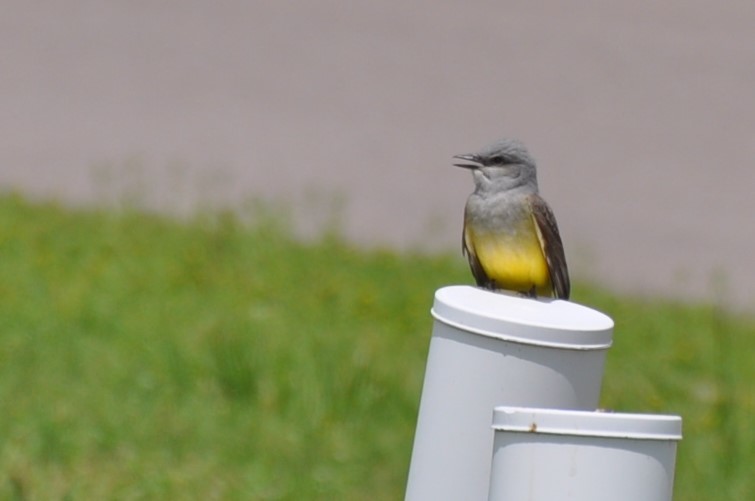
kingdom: Animalia
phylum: Chordata
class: Aves
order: Passeriformes
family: Tyrannidae
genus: Tyrannus
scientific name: Tyrannus verticalis
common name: Western kingbird
